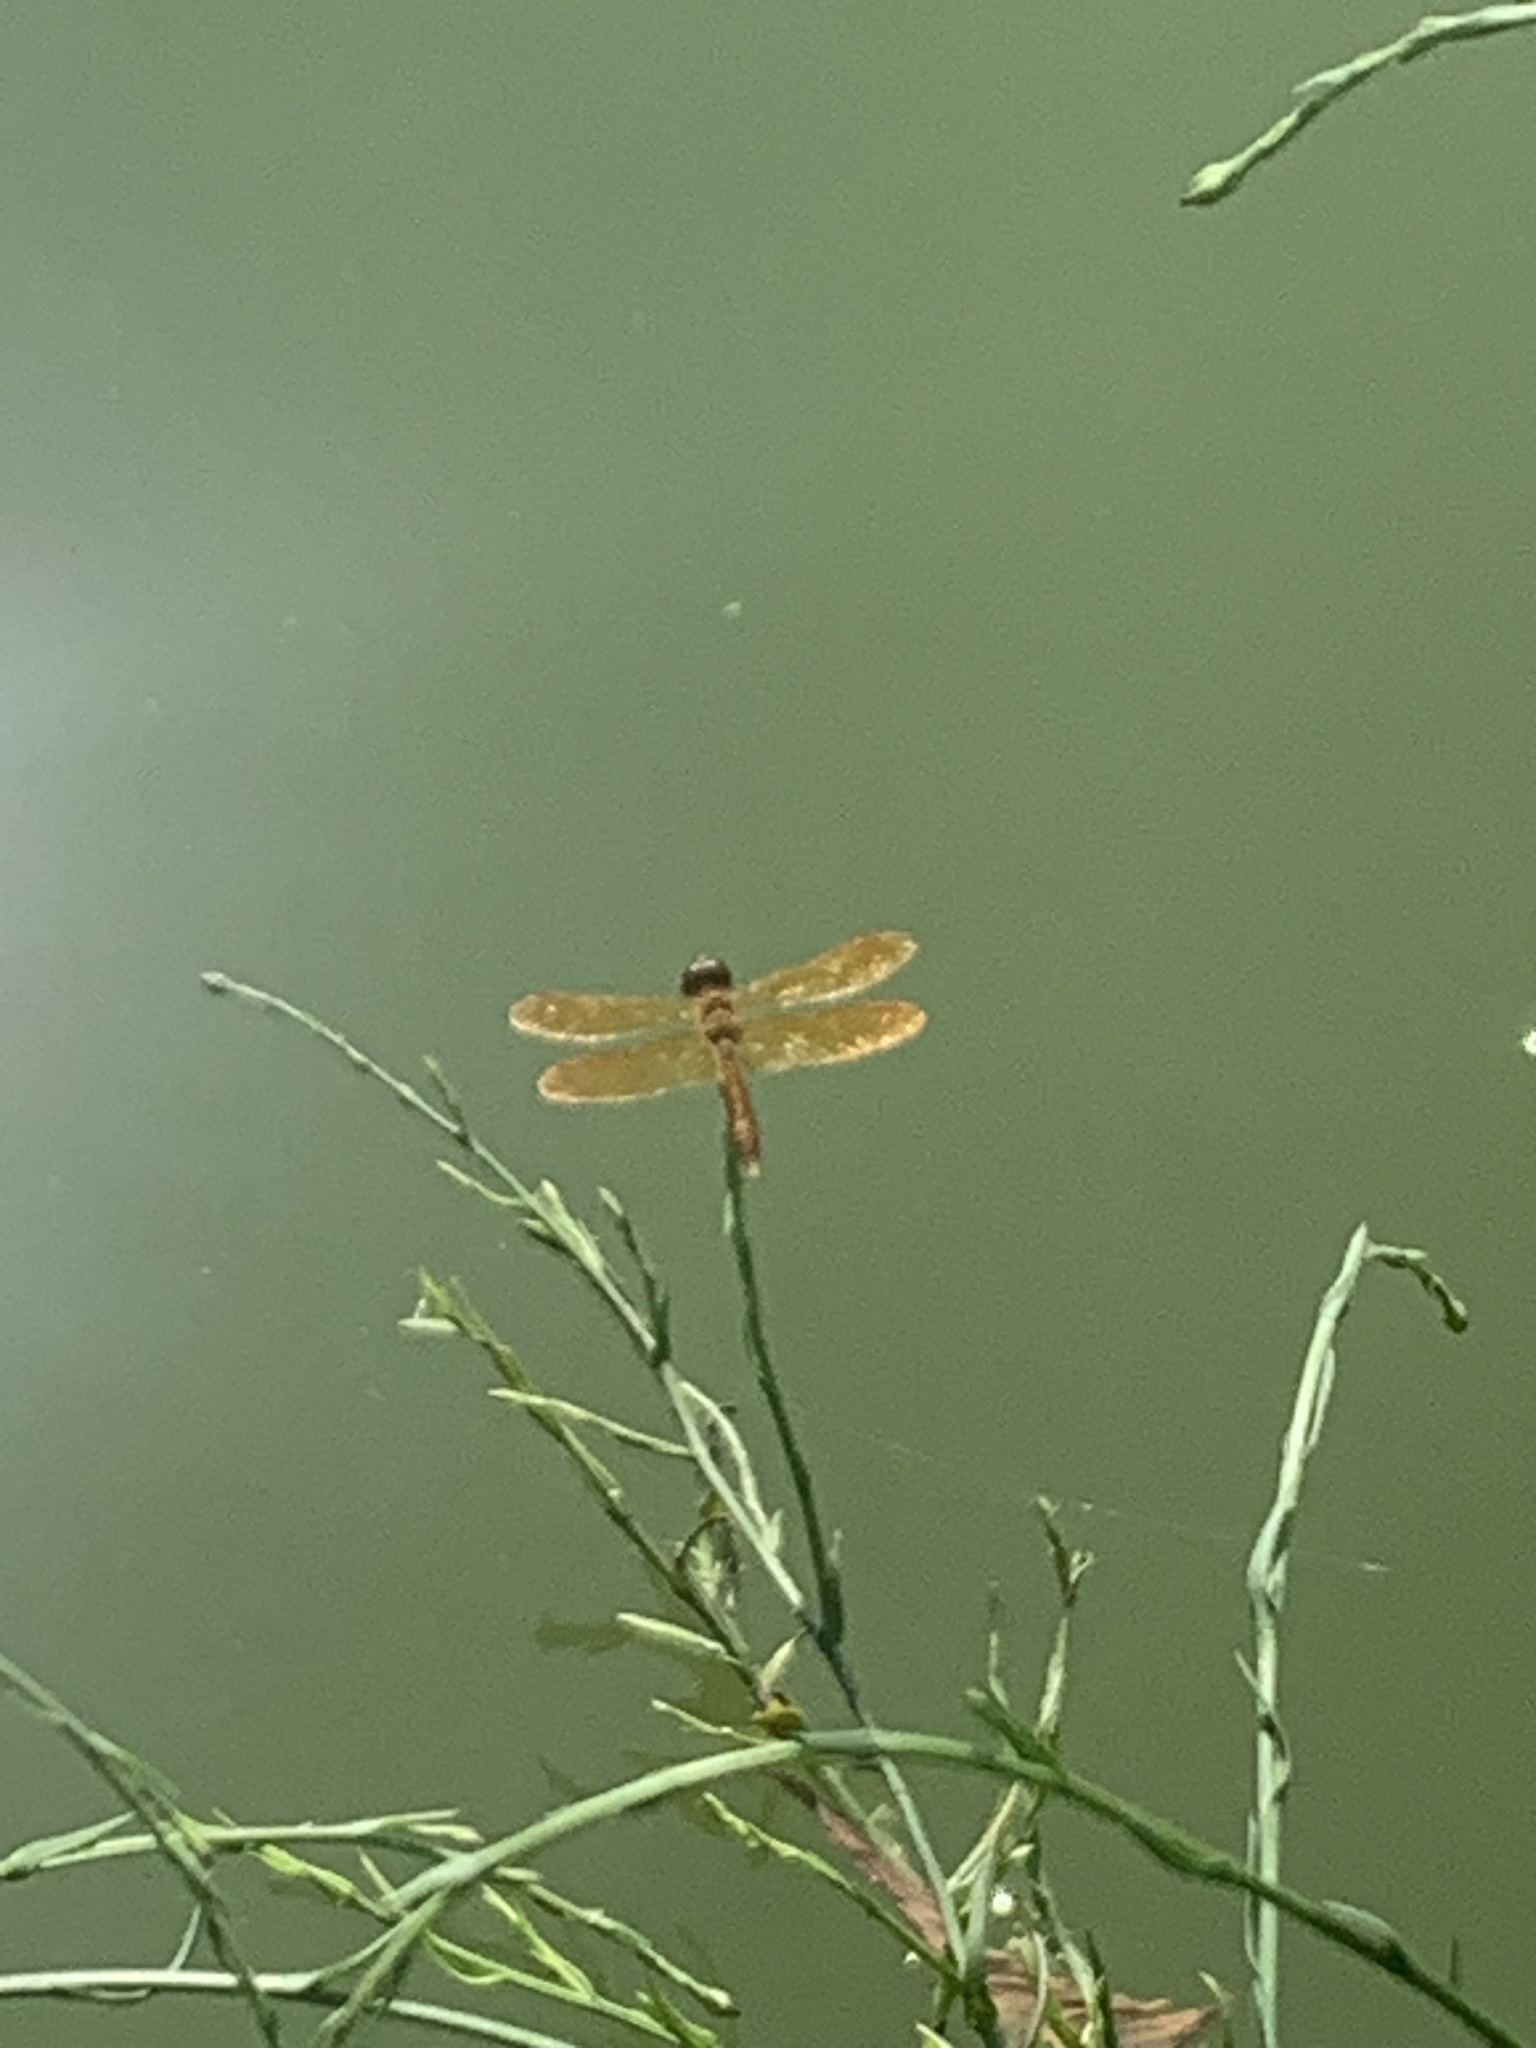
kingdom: Animalia
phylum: Arthropoda
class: Insecta
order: Odonata
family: Libellulidae
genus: Perithemis
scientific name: Perithemis tenera
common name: Eastern amberwing
